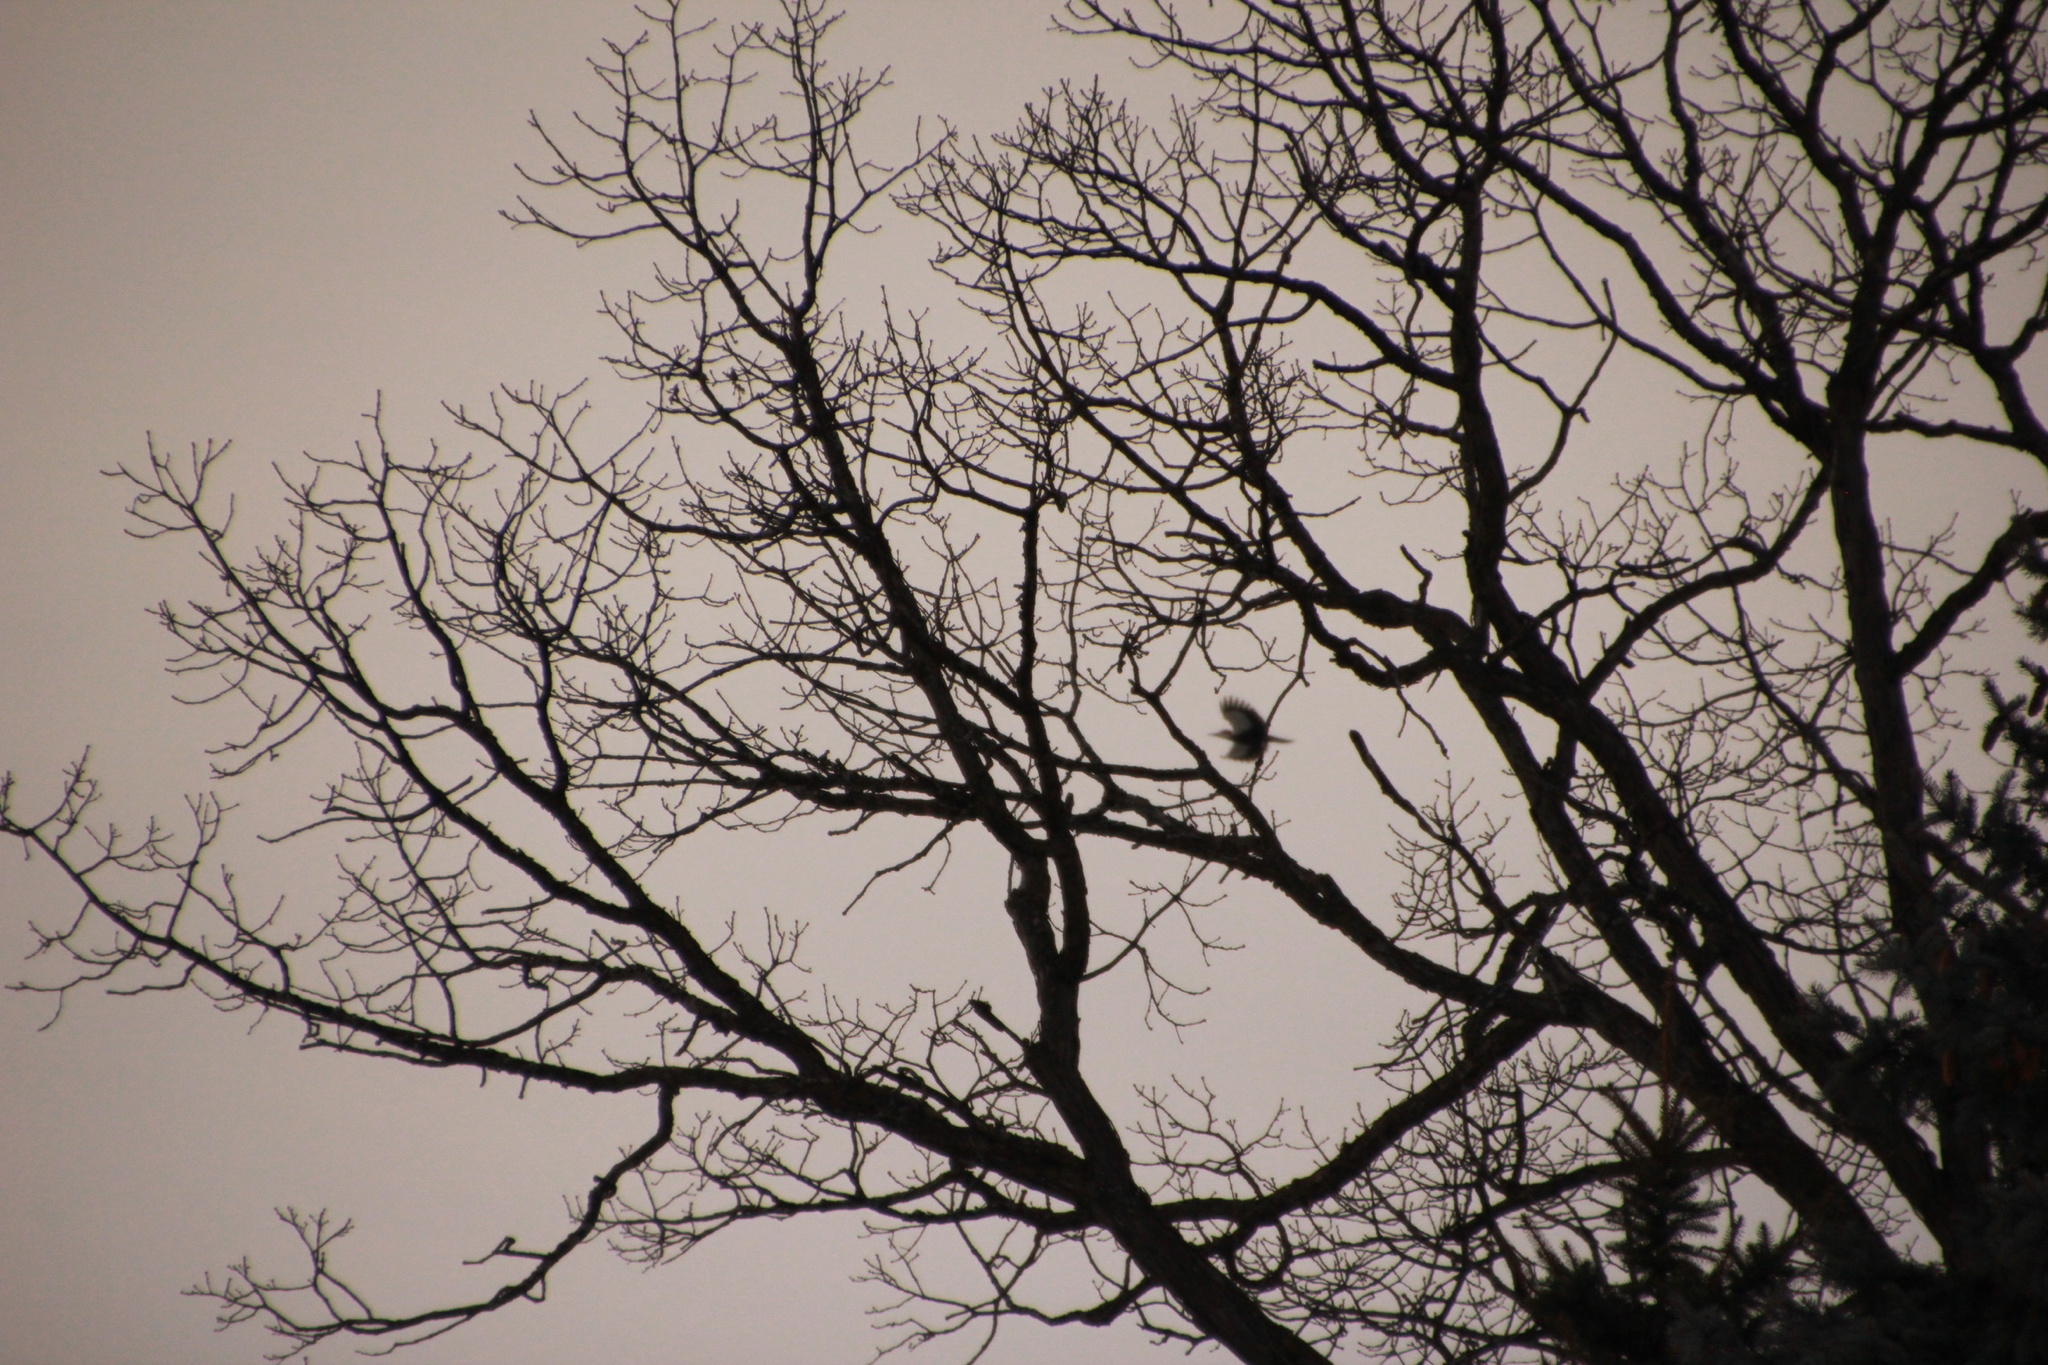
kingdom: Animalia
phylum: Chordata
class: Aves
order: Piciformes
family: Picidae
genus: Dryocopus
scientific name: Dryocopus pileatus
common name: Pileated woodpecker
